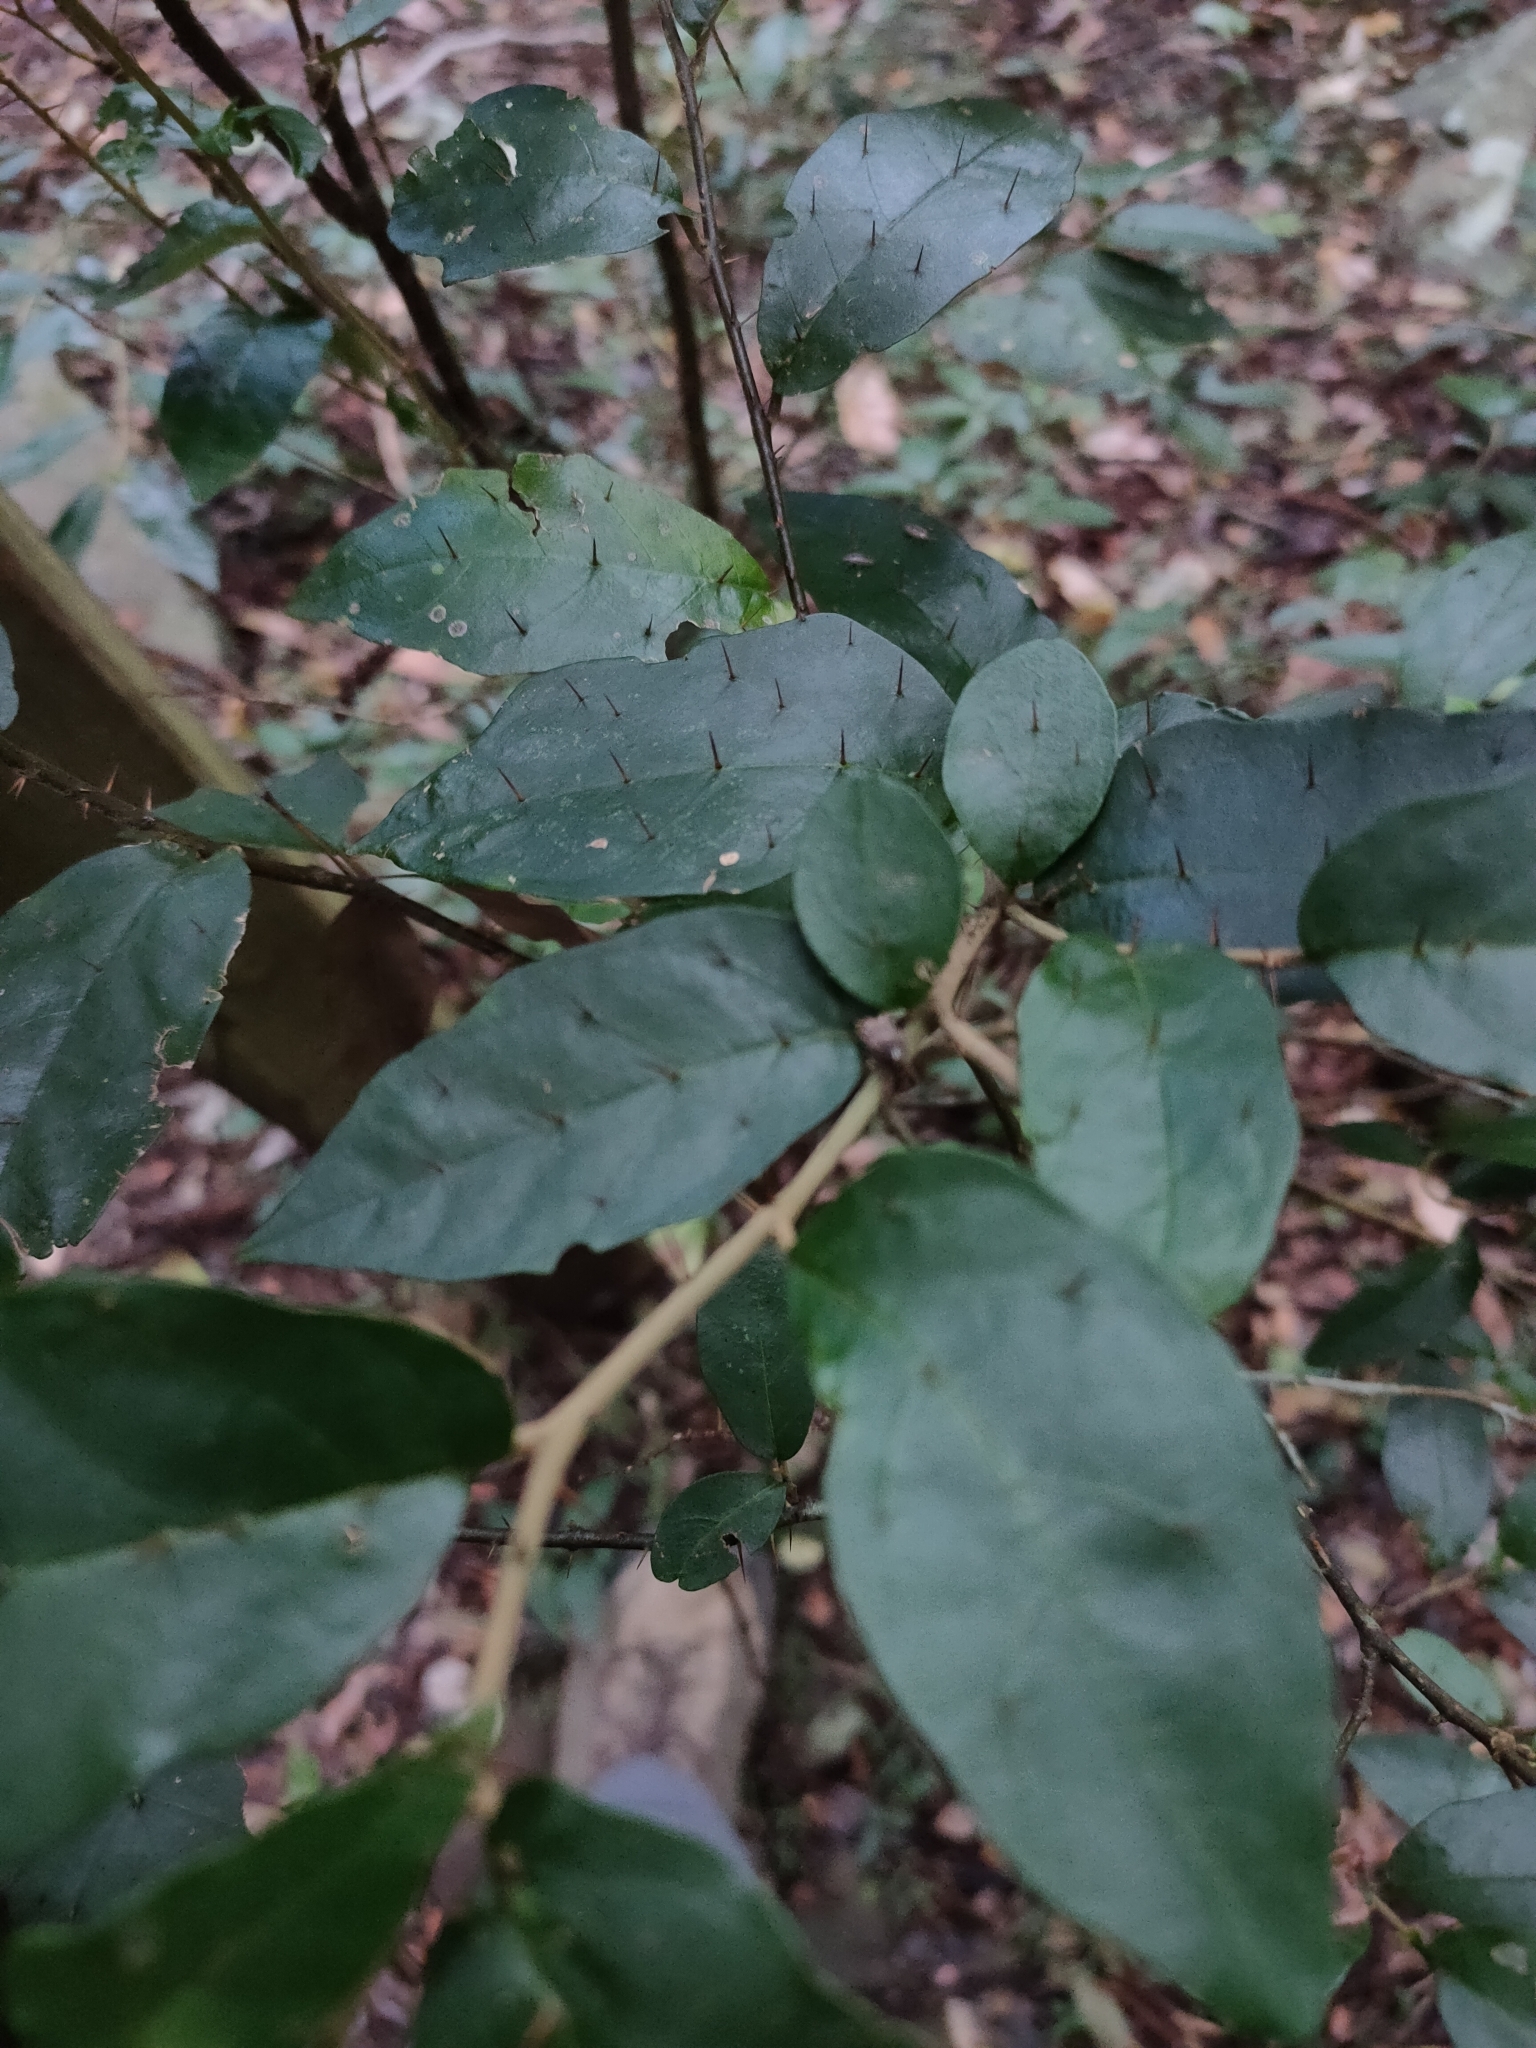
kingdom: Plantae
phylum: Tracheophyta
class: Magnoliopsida
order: Solanales
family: Solanaceae
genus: Solanum
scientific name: Solanum corifolium
